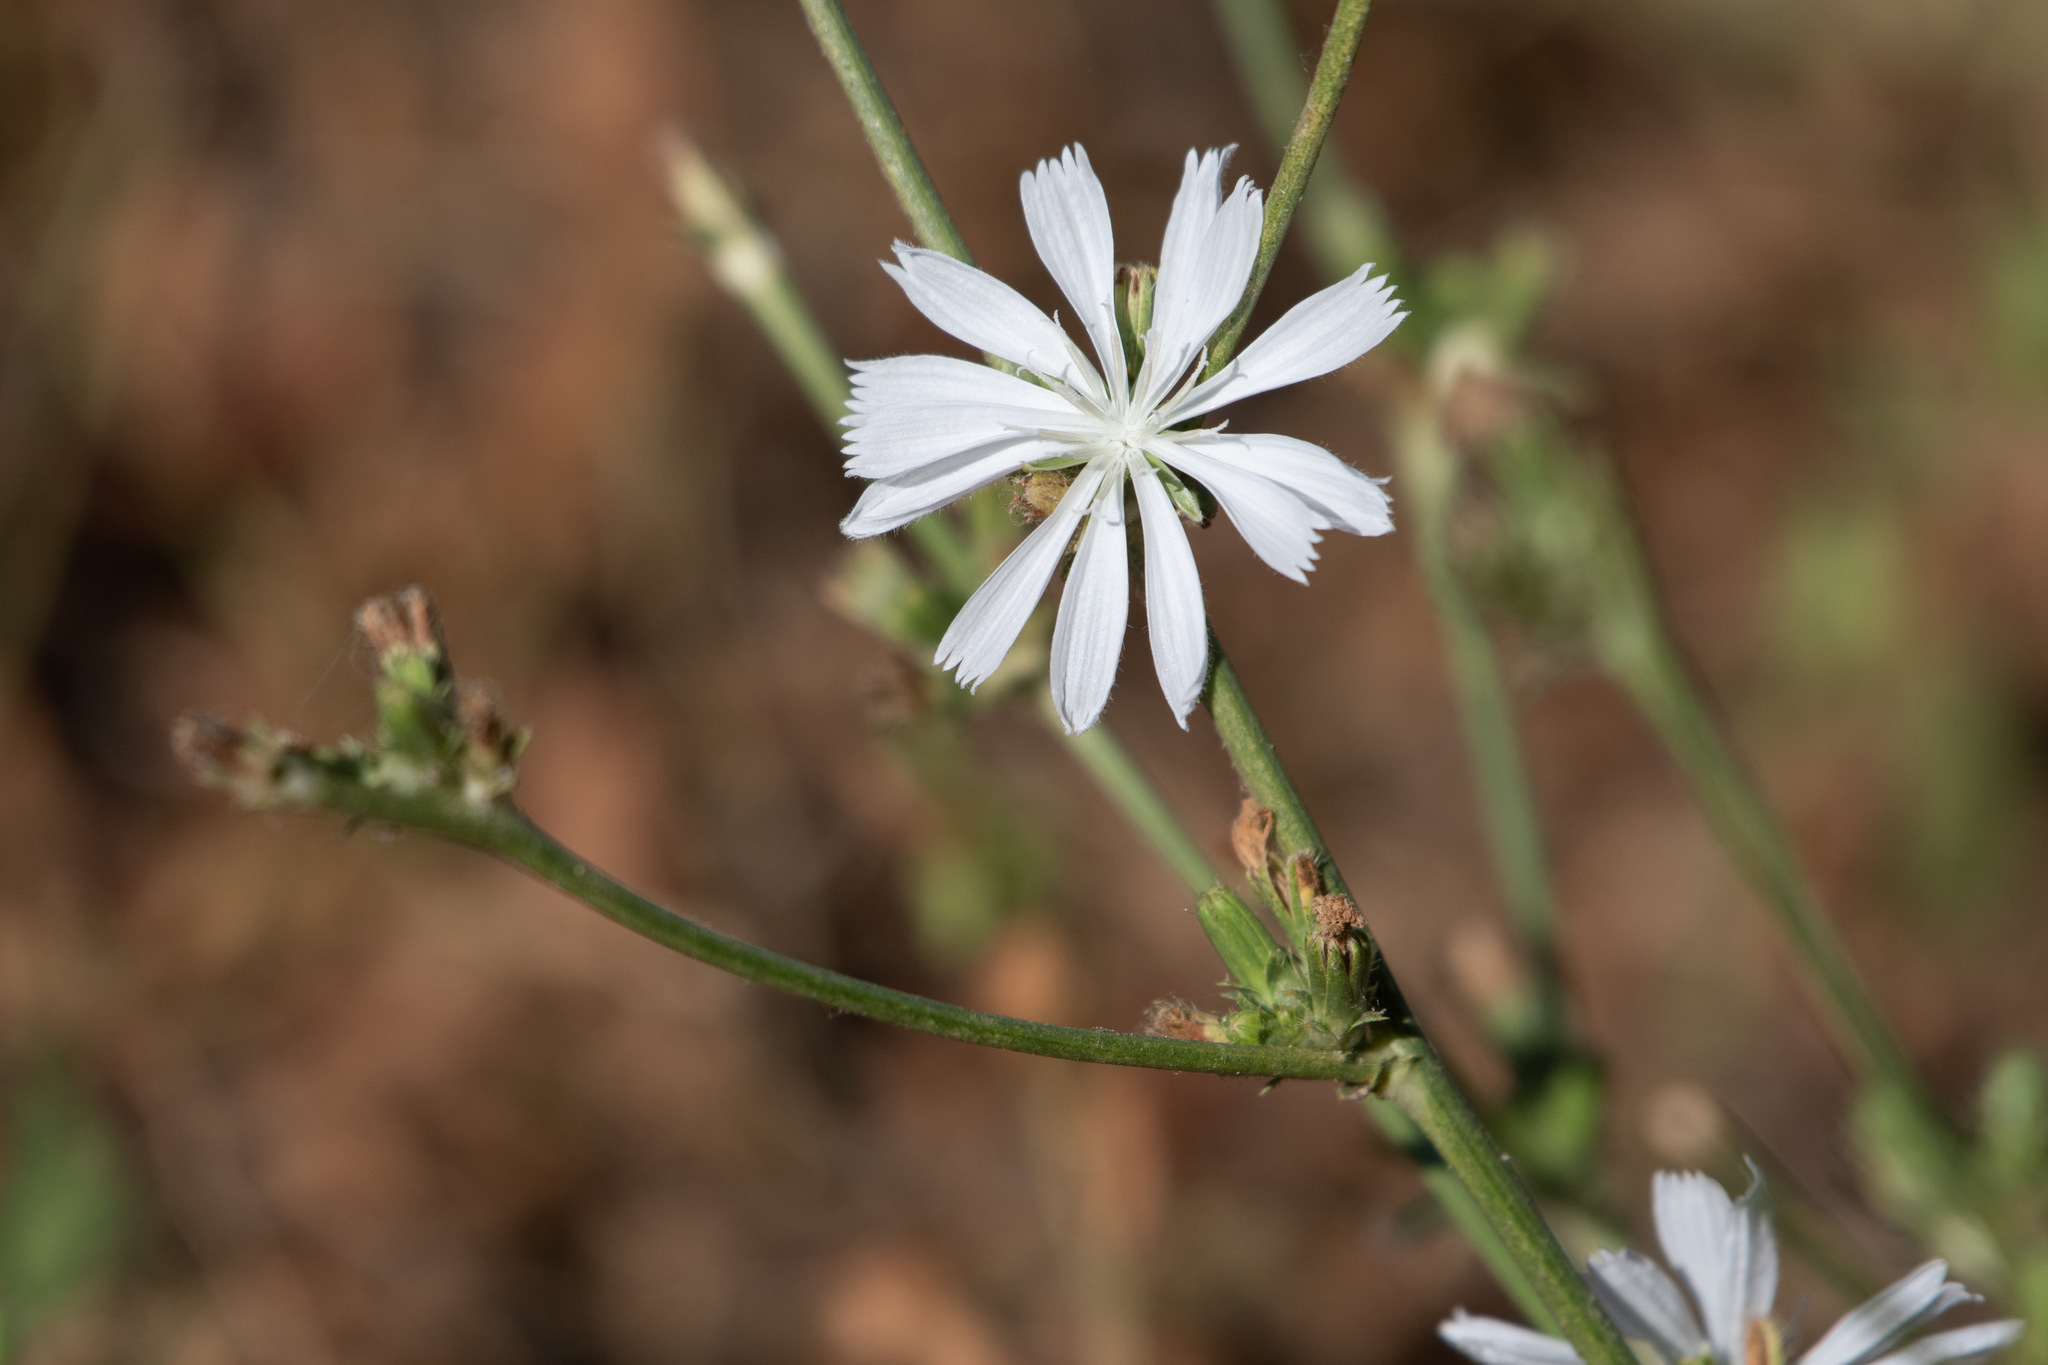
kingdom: Plantae
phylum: Tracheophyta
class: Magnoliopsida
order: Asterales
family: Asteraceae
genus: Cichorium
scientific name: Cichorium intybus
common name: Chicory
